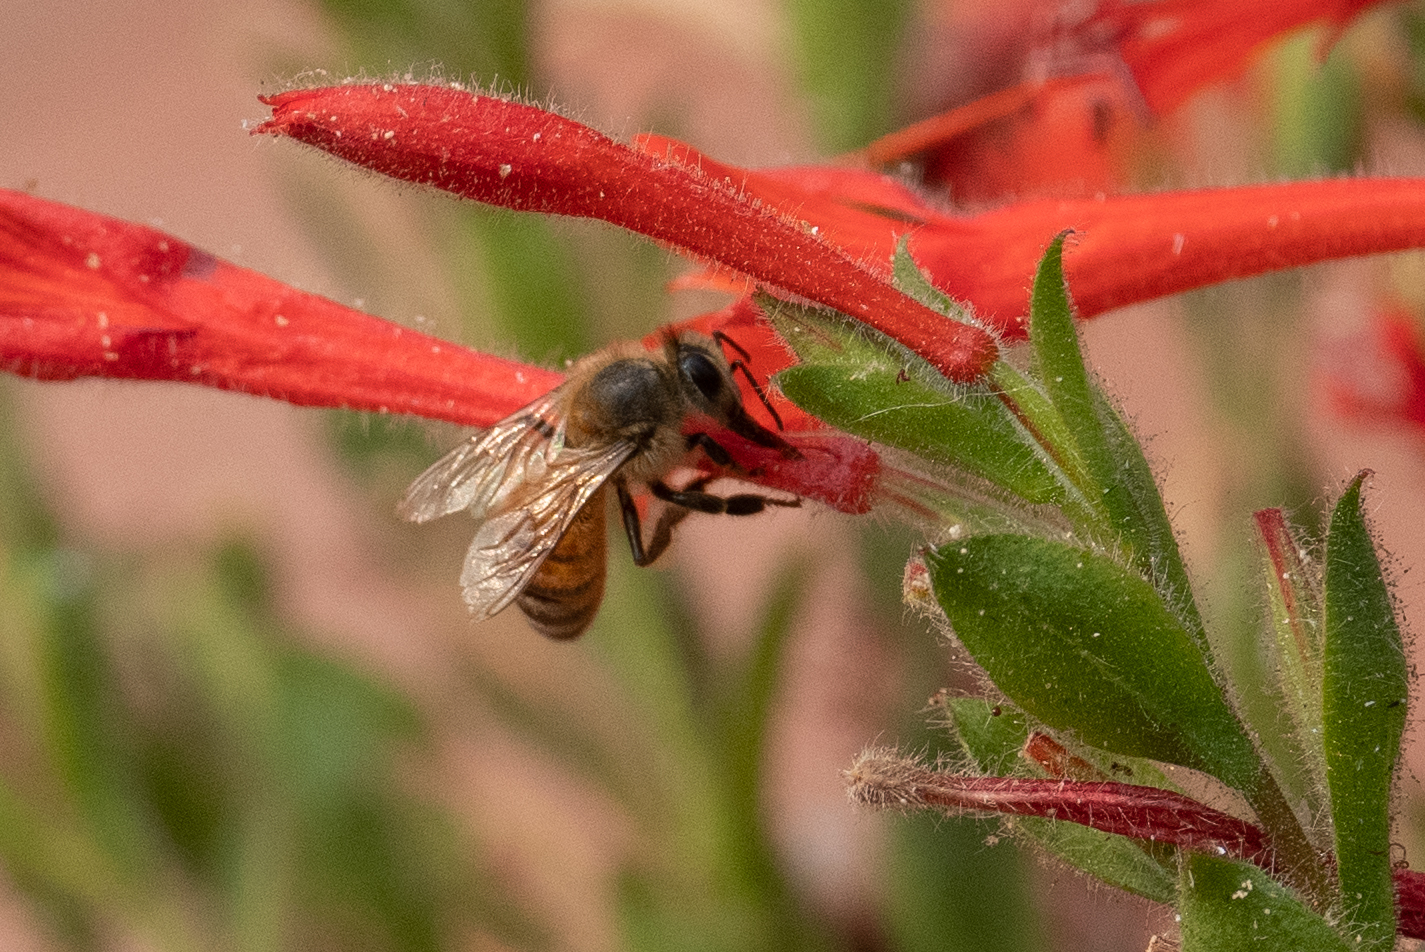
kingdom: Animalia
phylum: Arthropoda
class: Insecta
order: Hymenoptera
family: Apidae
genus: Apis
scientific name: Apis mellifera
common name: Honey bee
